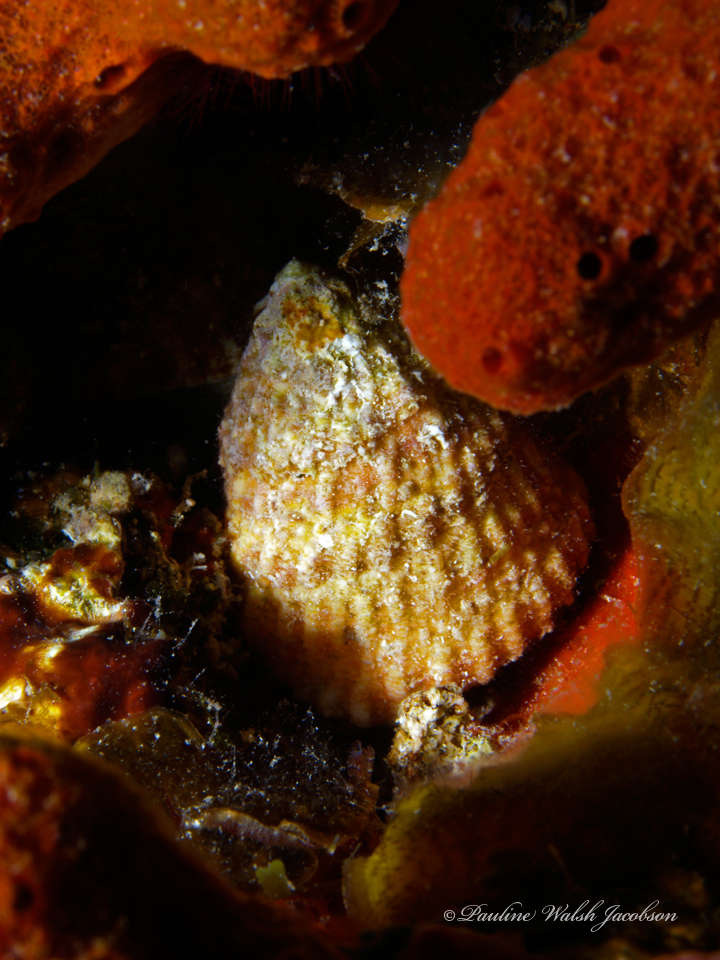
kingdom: Animalia
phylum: Mollusca
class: Gastropoda
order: Trochida
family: Turbinidae
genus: Lithopoma
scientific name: Lithopoma americanum
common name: American starsnail
